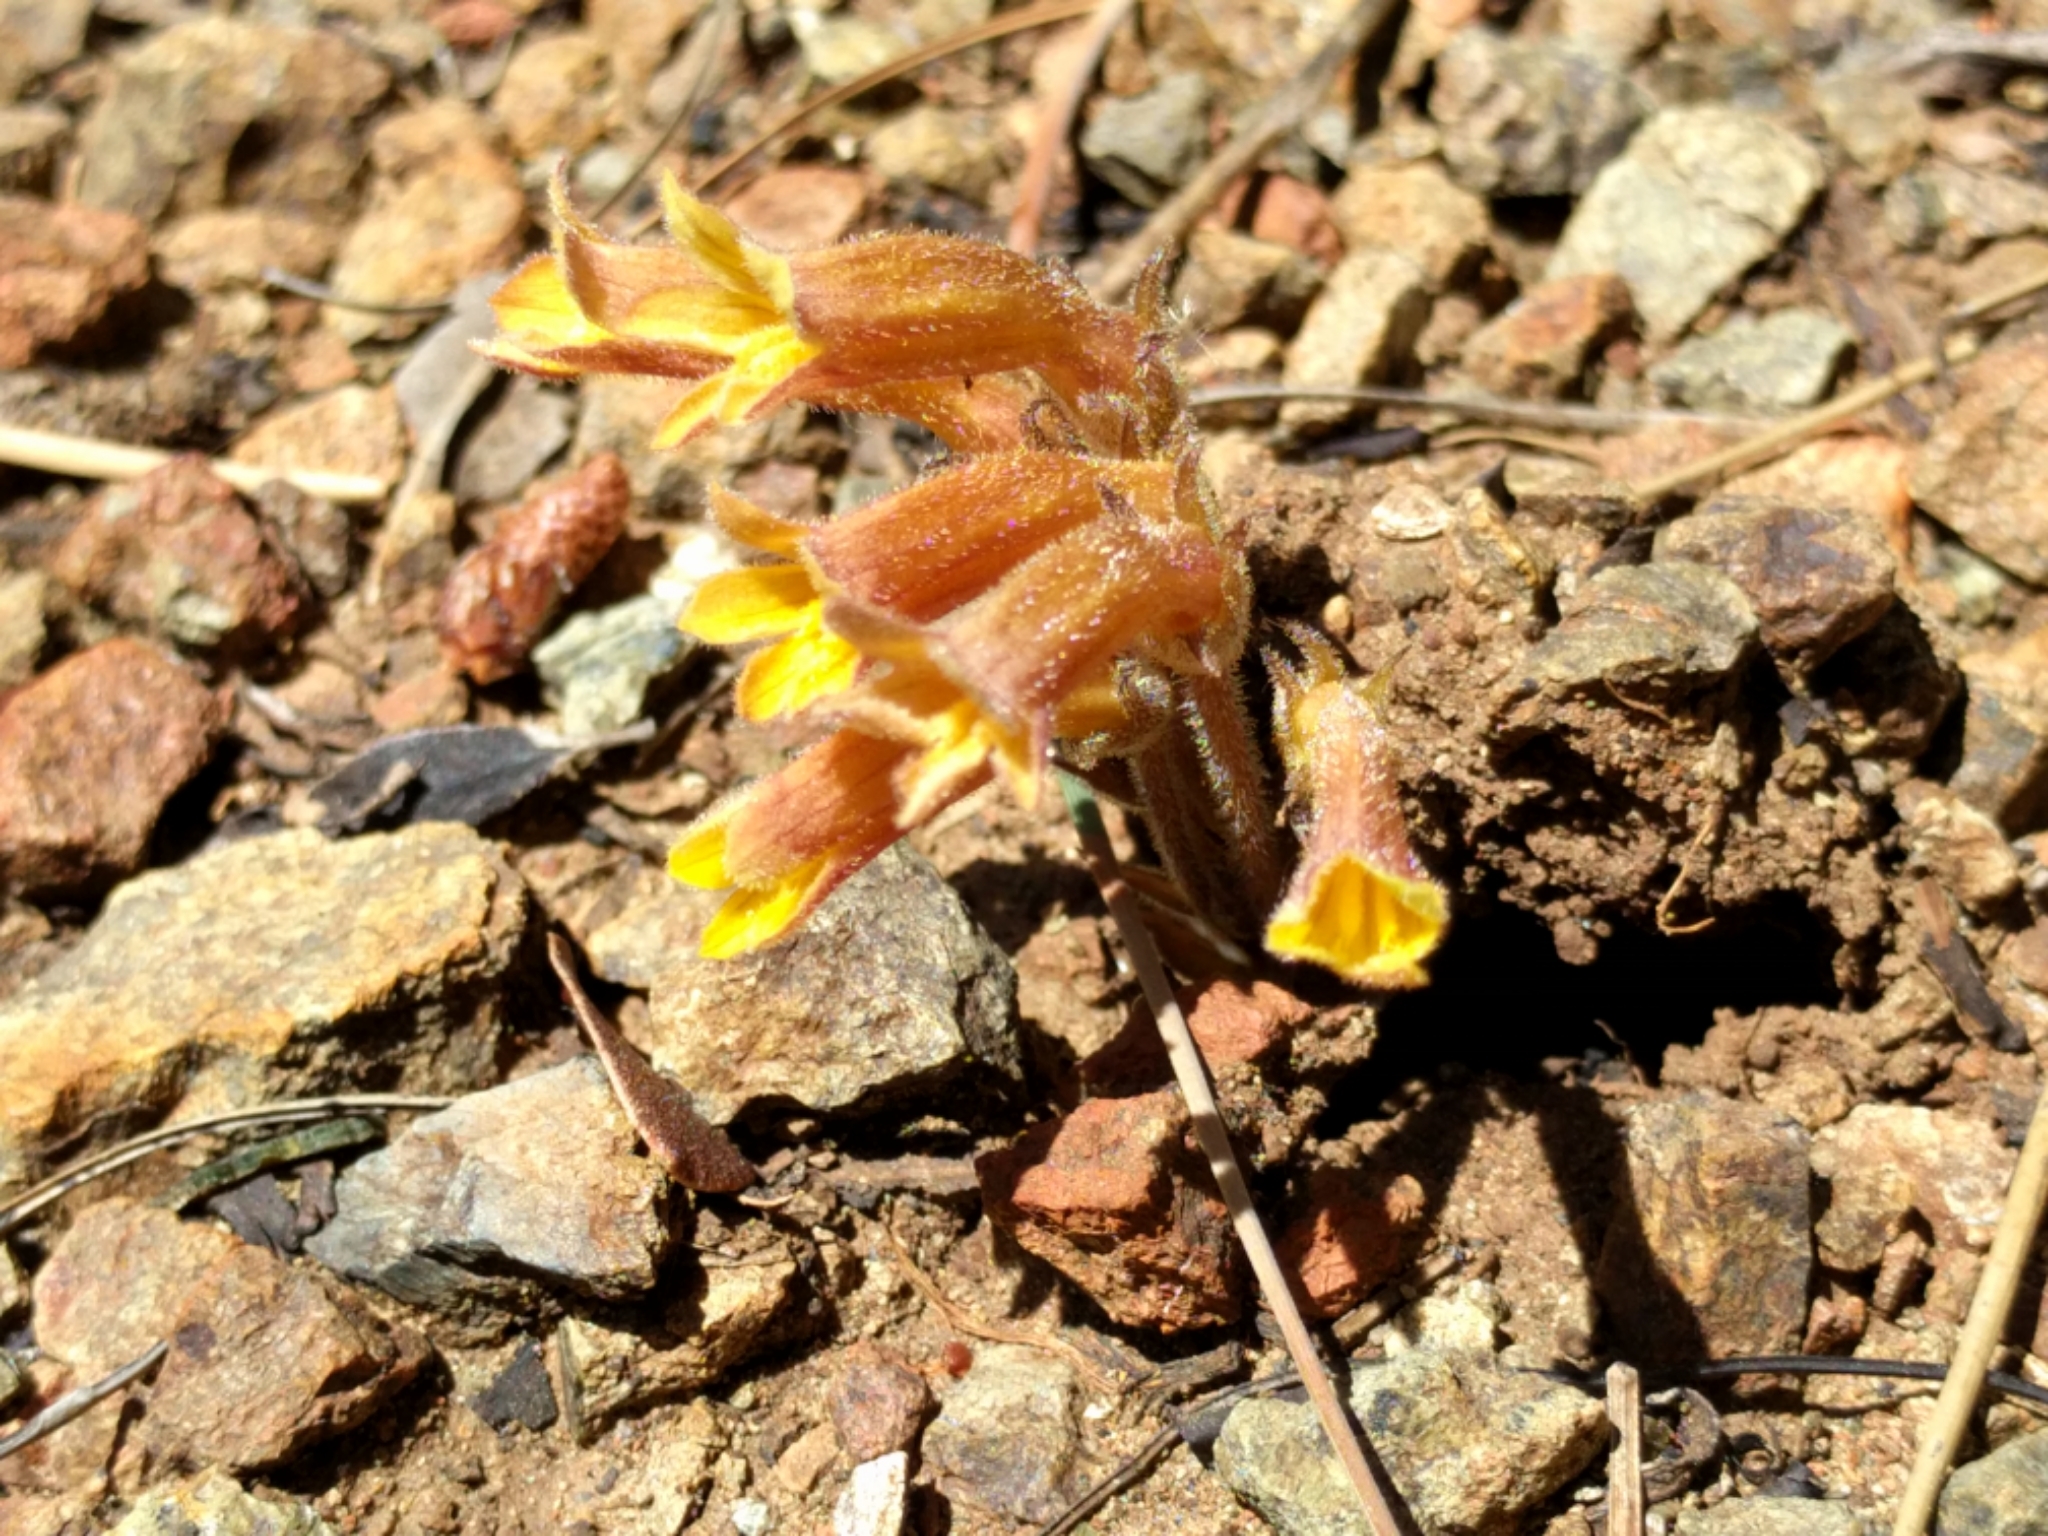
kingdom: Plantae
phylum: Tracheophyta
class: Magnoliopsida
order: Lamiales
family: Orobanchaceae
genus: Aphyllon
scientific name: Aphyllon franciscanum
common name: San francisco broomrape
